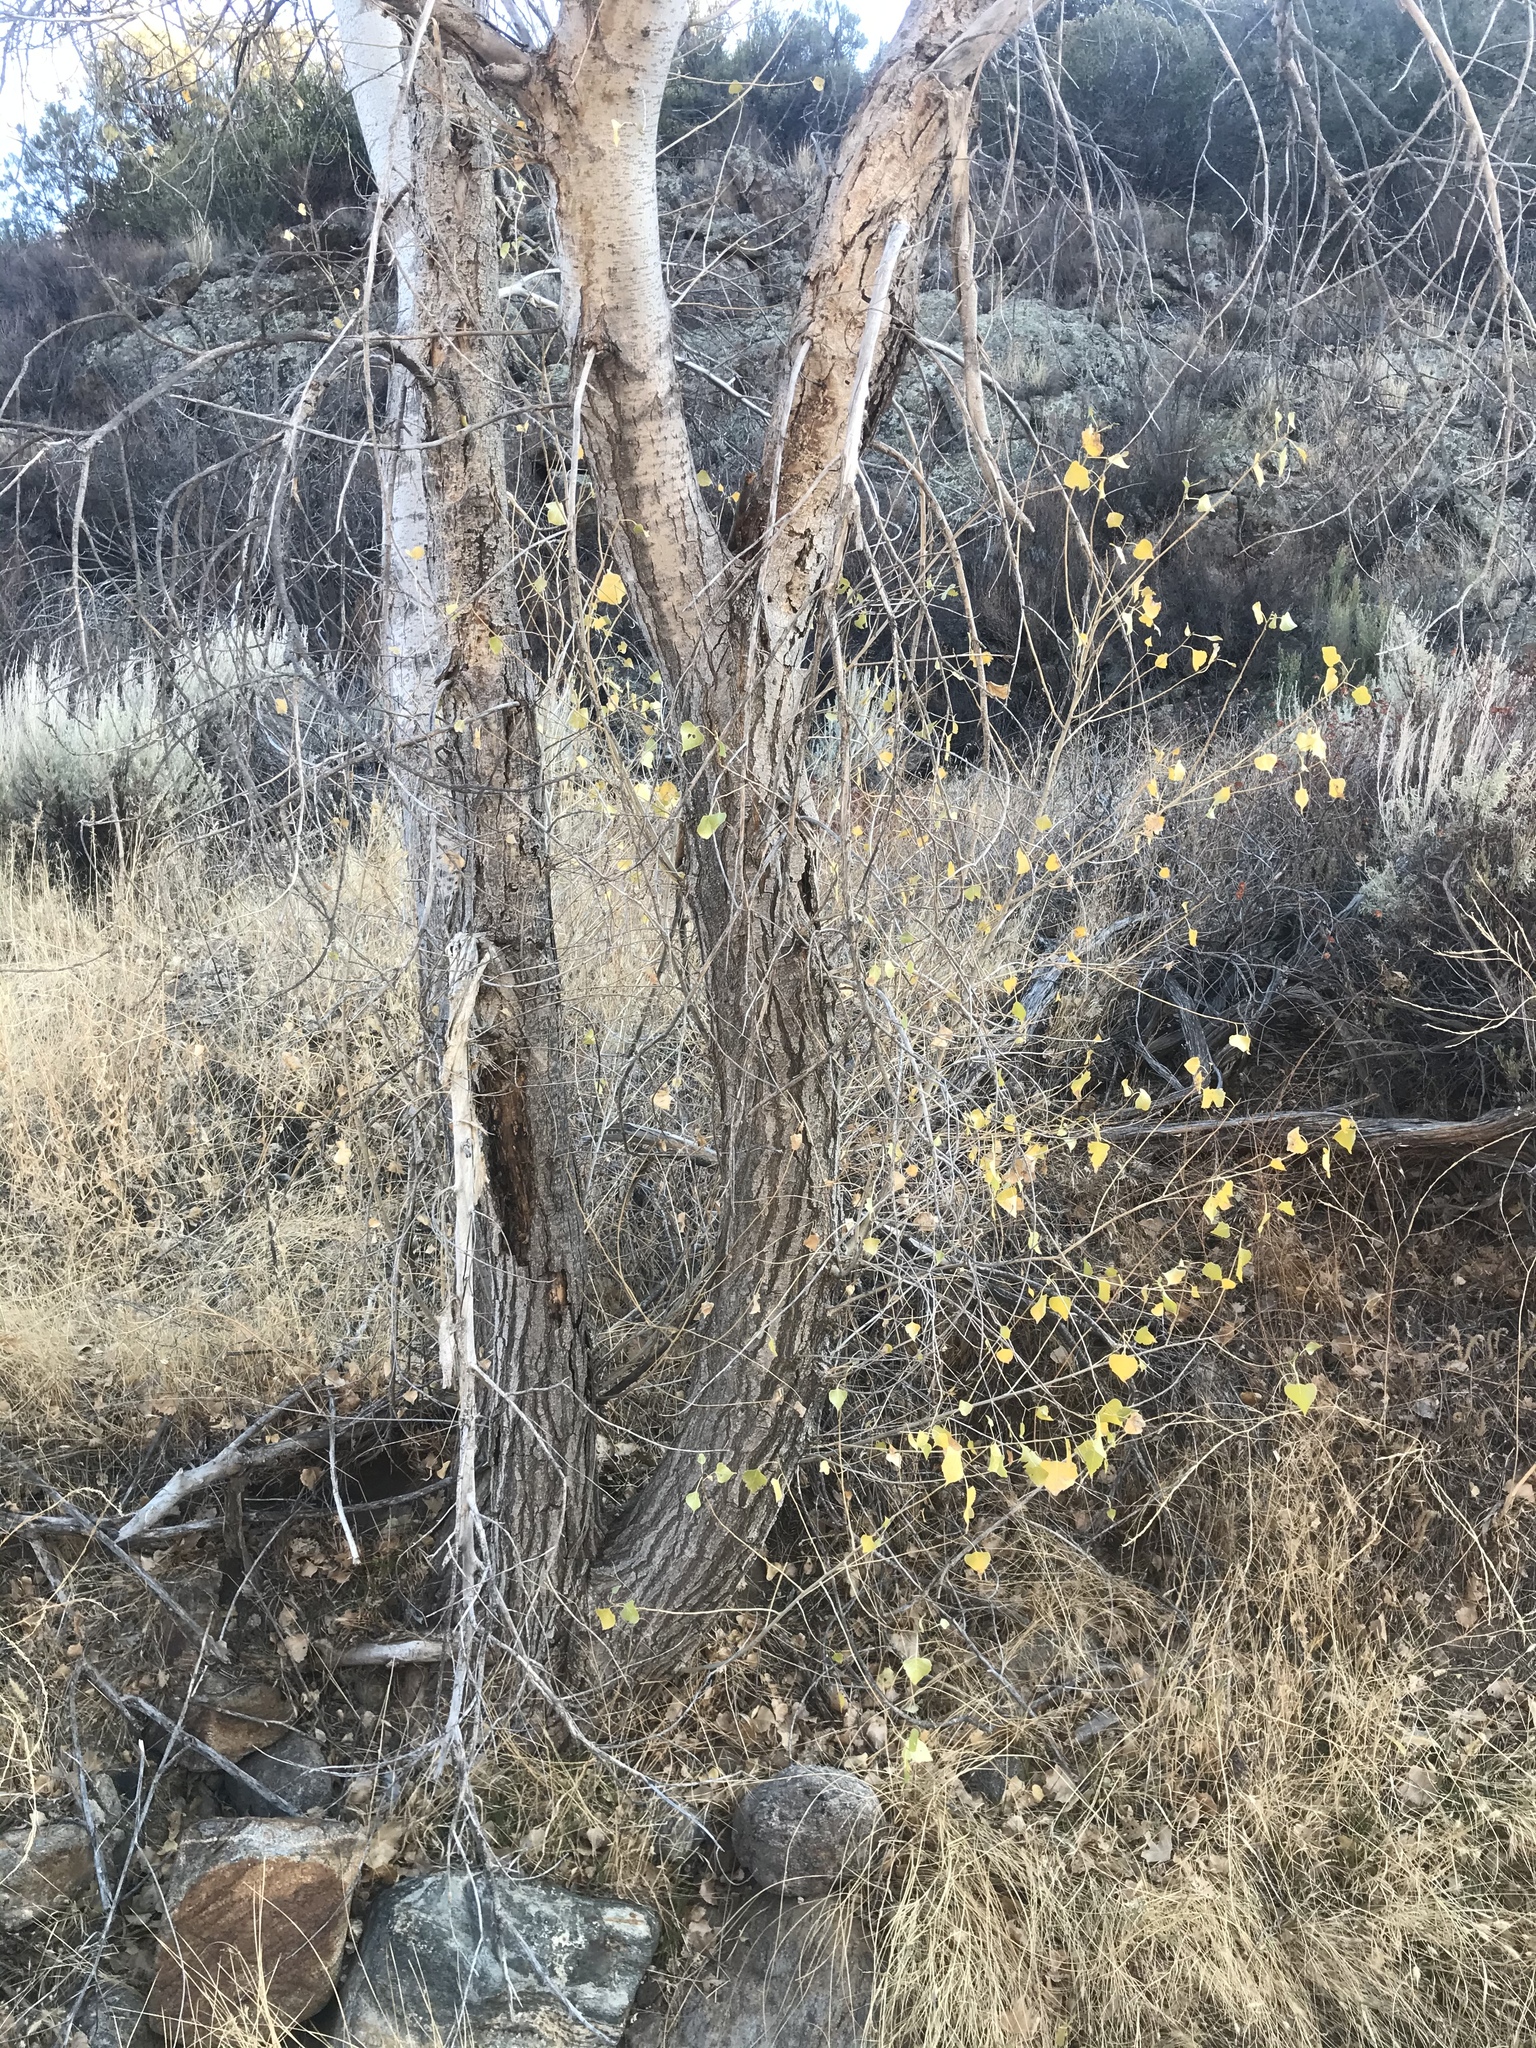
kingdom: Plantae
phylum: Tracheophyta
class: Magnoliopsida
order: Malpighiales
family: Salicaceae
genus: Populus
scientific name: Populus fremontii
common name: Fremont's cottonwood
